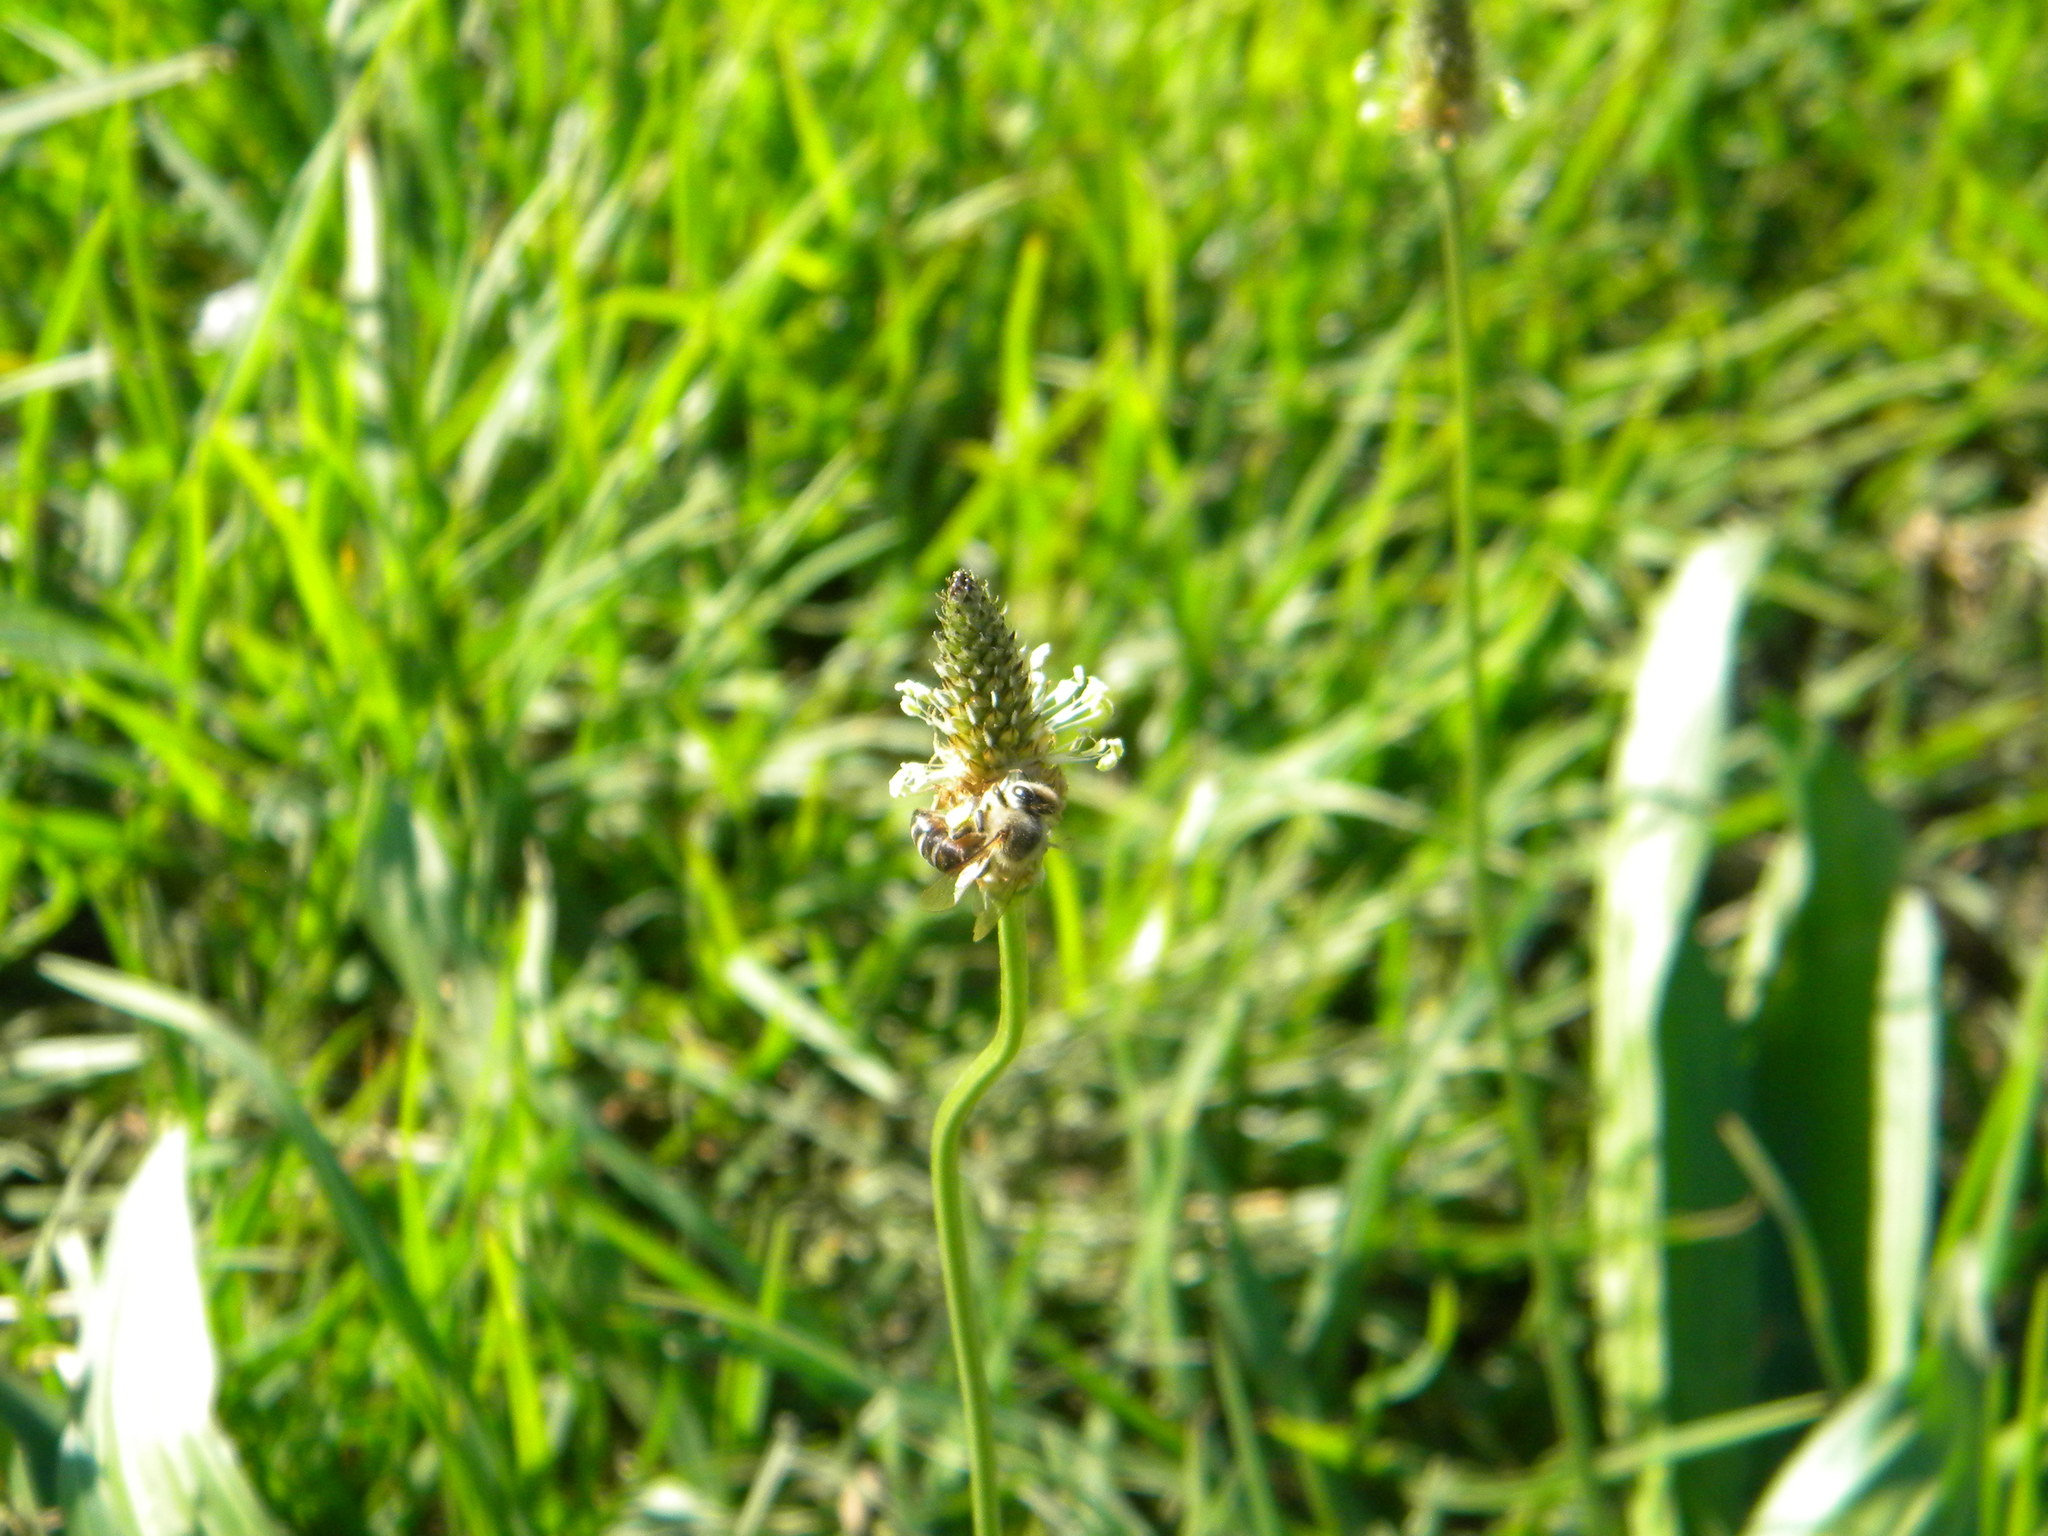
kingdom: Plantae
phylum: Tracheophyta
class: Magnoliopsida
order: Lamiales
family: Plantaginaceae
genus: Plantago
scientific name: Plantago lanceolata
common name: Ribwort plantain
